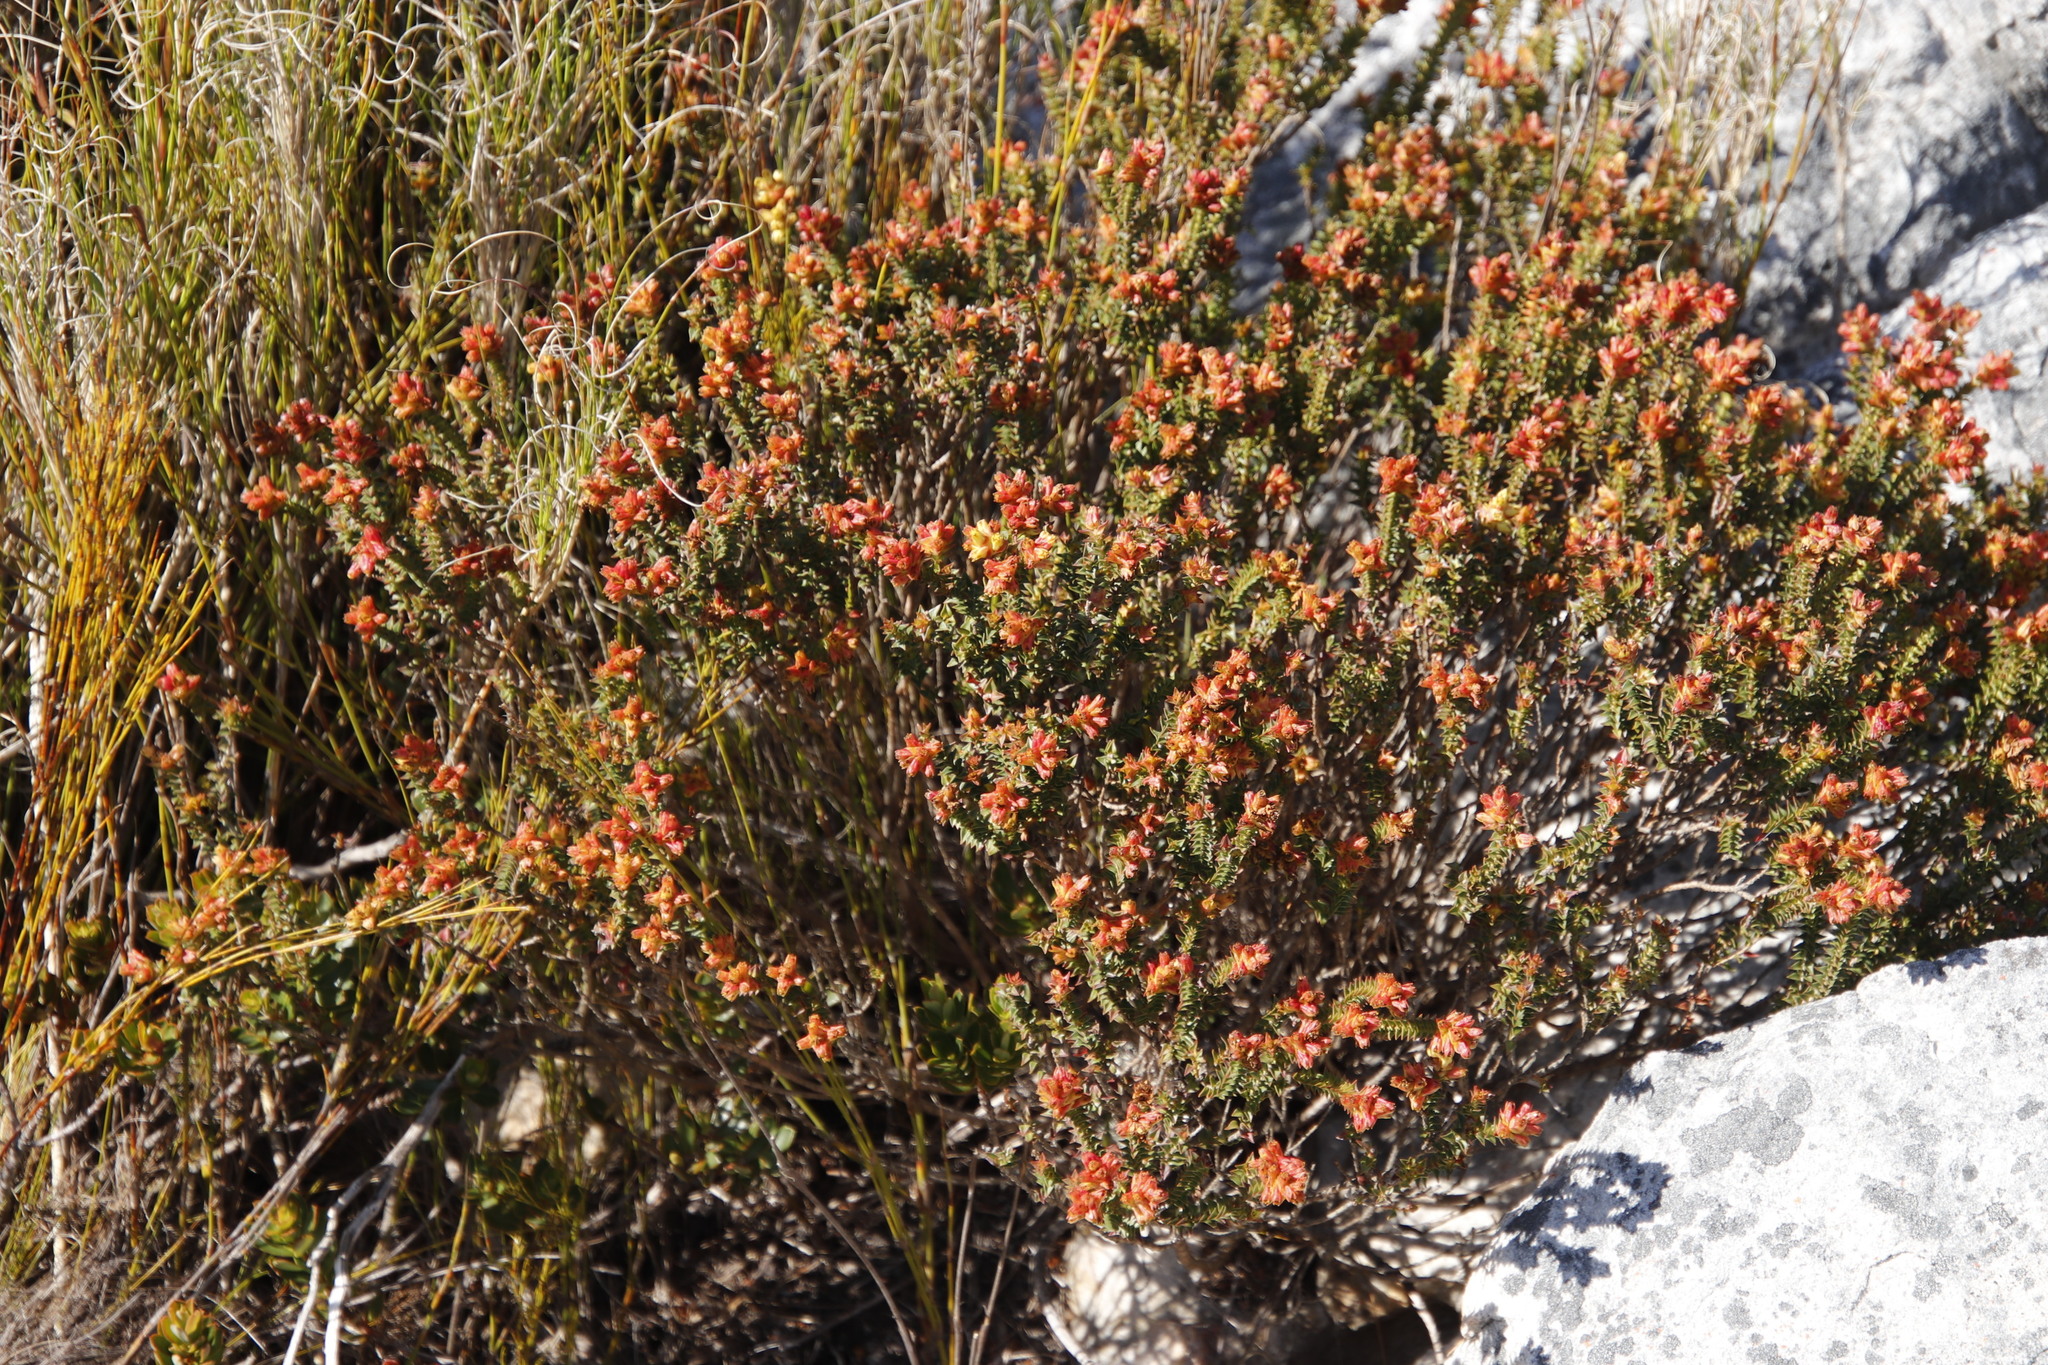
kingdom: Plantae
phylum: Tracheophyta
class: Magnoliopsida
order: Myrtales
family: Penaeaceae
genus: Penaea
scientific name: Penaea mucronata
